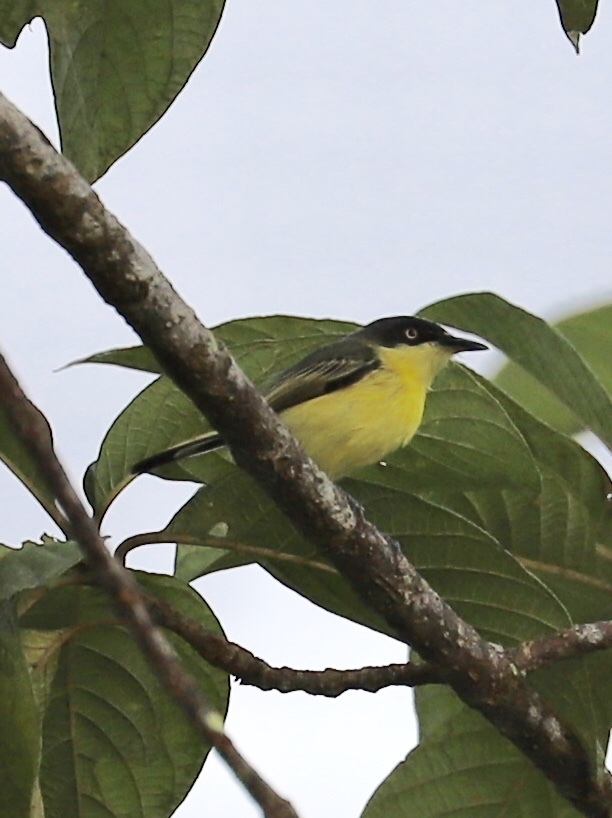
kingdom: Animalia
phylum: Chordata
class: Aves
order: Passeriformes
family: Tyrannidae
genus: Todirostrum
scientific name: Todirostrum cinereum
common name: Common tody-flycatcher
